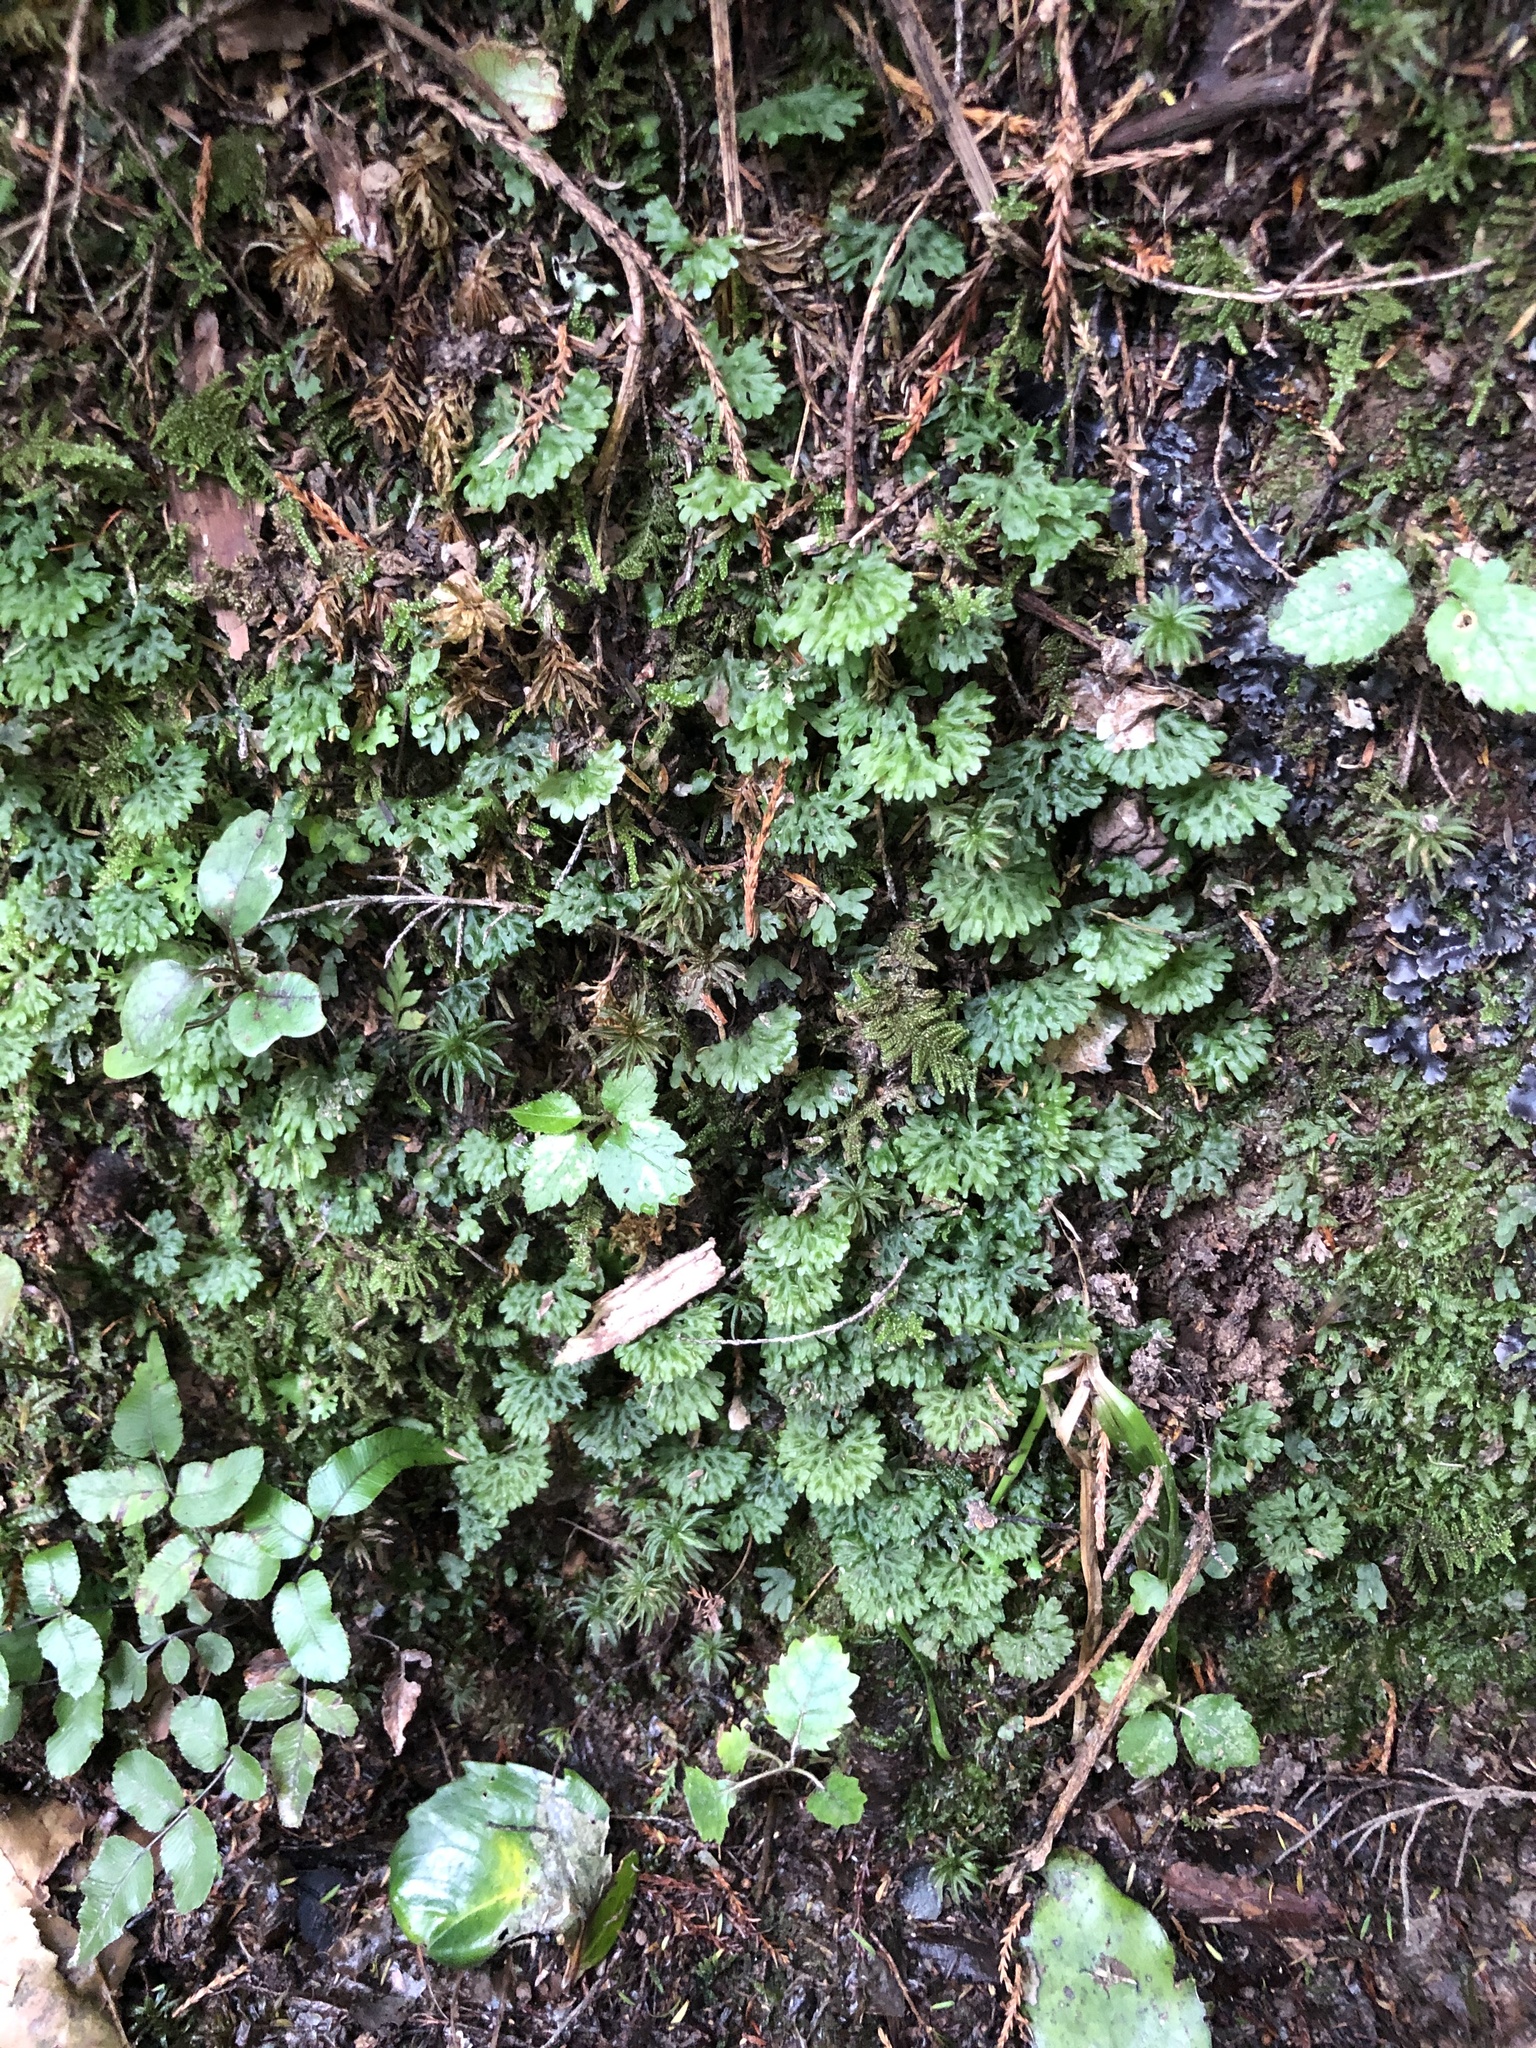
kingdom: Plantae
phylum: Marchantiophyta
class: Jungermanniopsida
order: Pallaviciniales
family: Hymenophytaceae
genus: Hymenophyton
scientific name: Hymenophyton flabellatum
